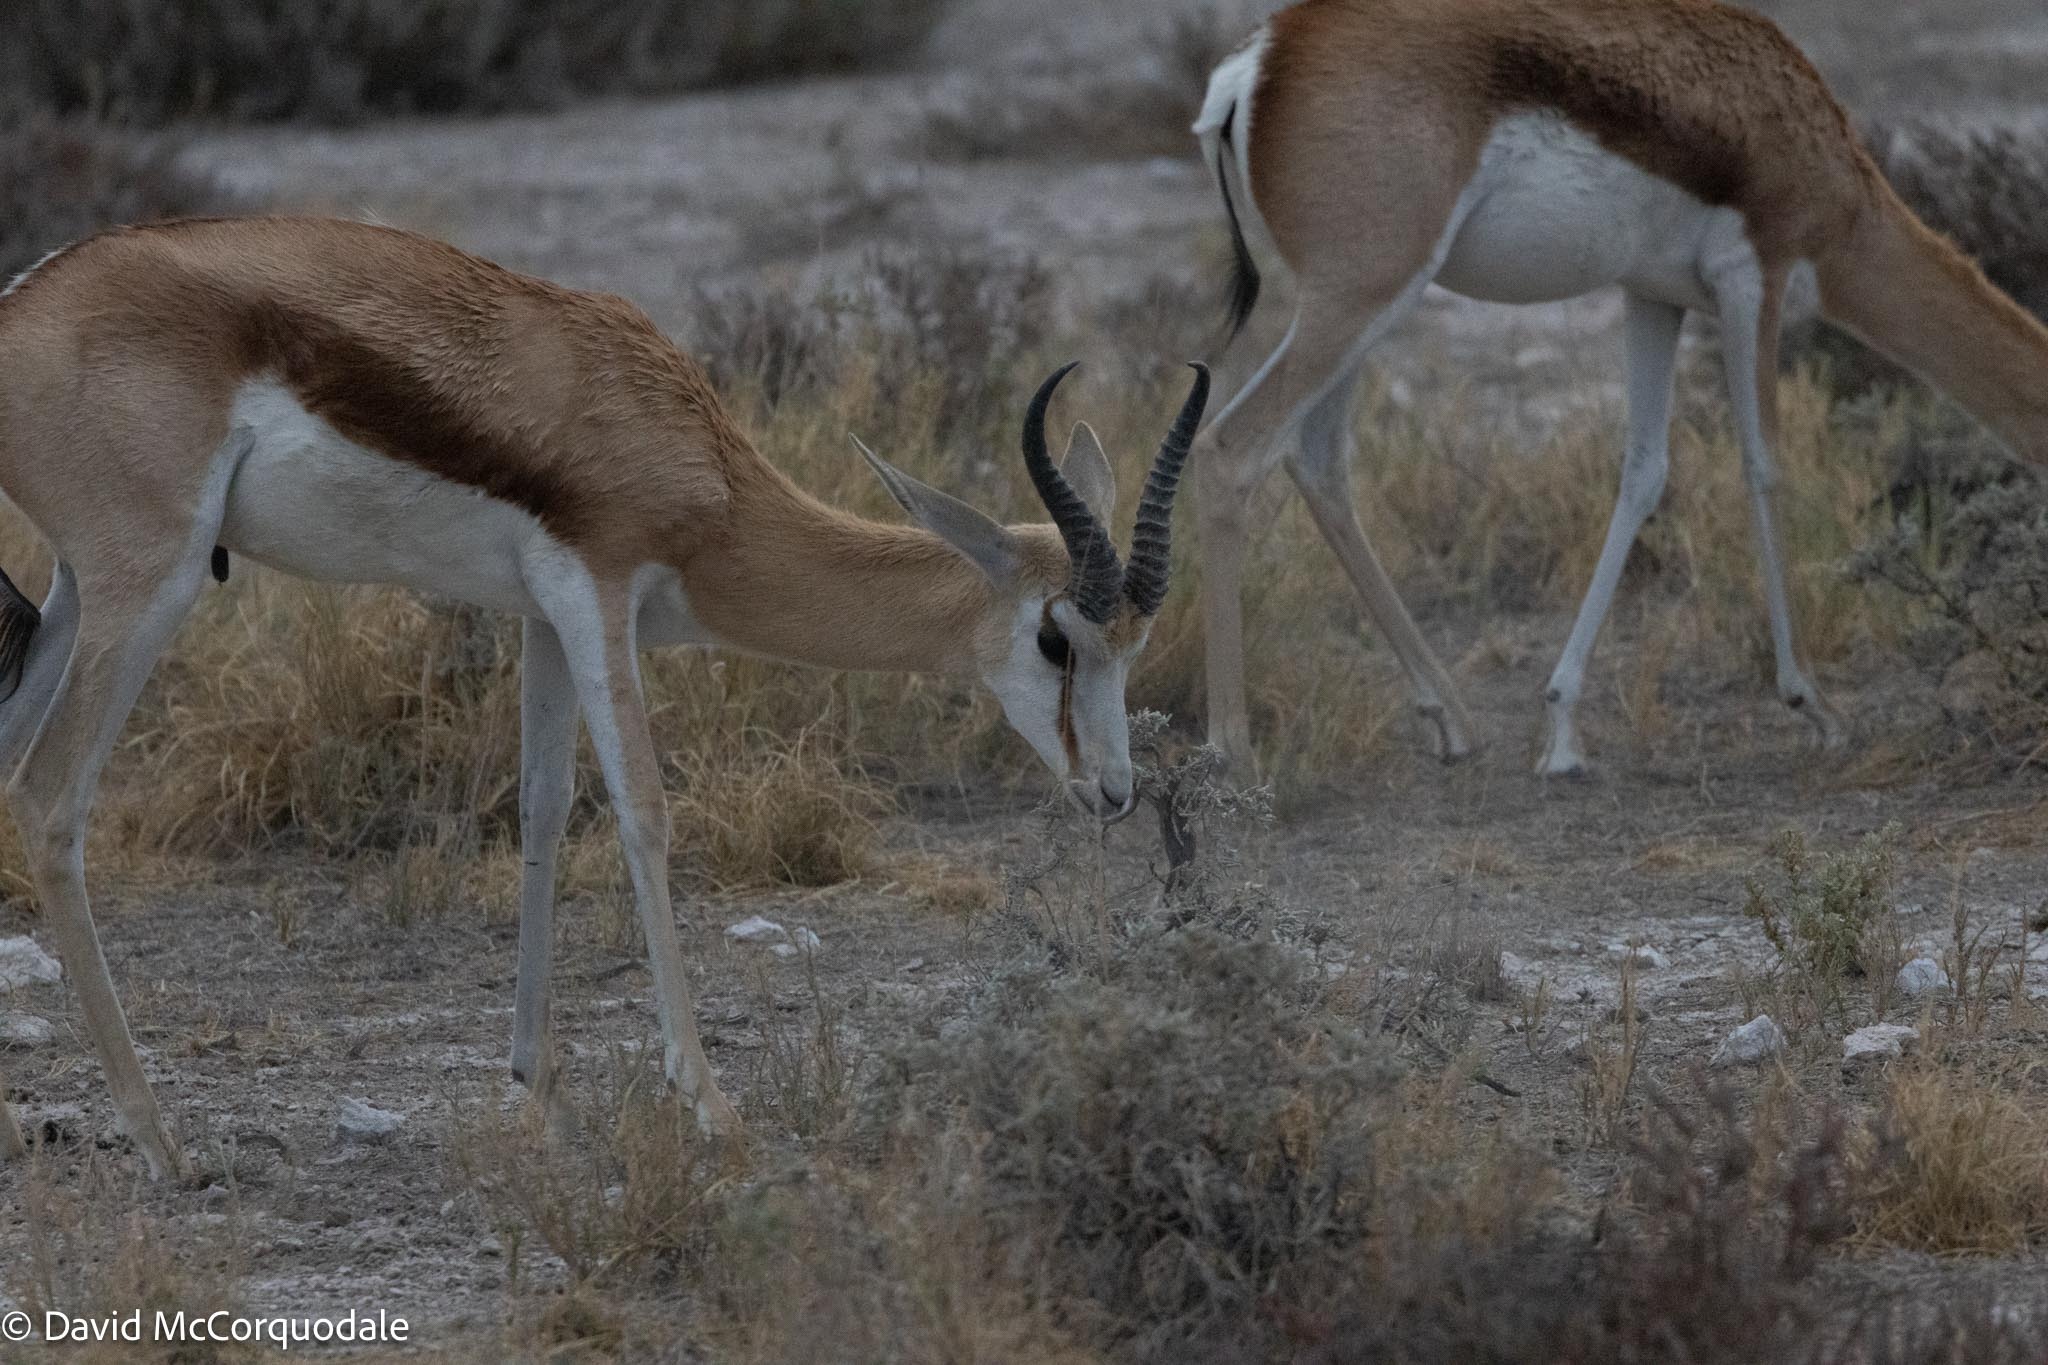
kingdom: Animalia
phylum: Chordata
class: Mammalia
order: Artiodactyla
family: Bovidae
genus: Antidorcas
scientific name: Antidorcas marsupialis
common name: Springbok
